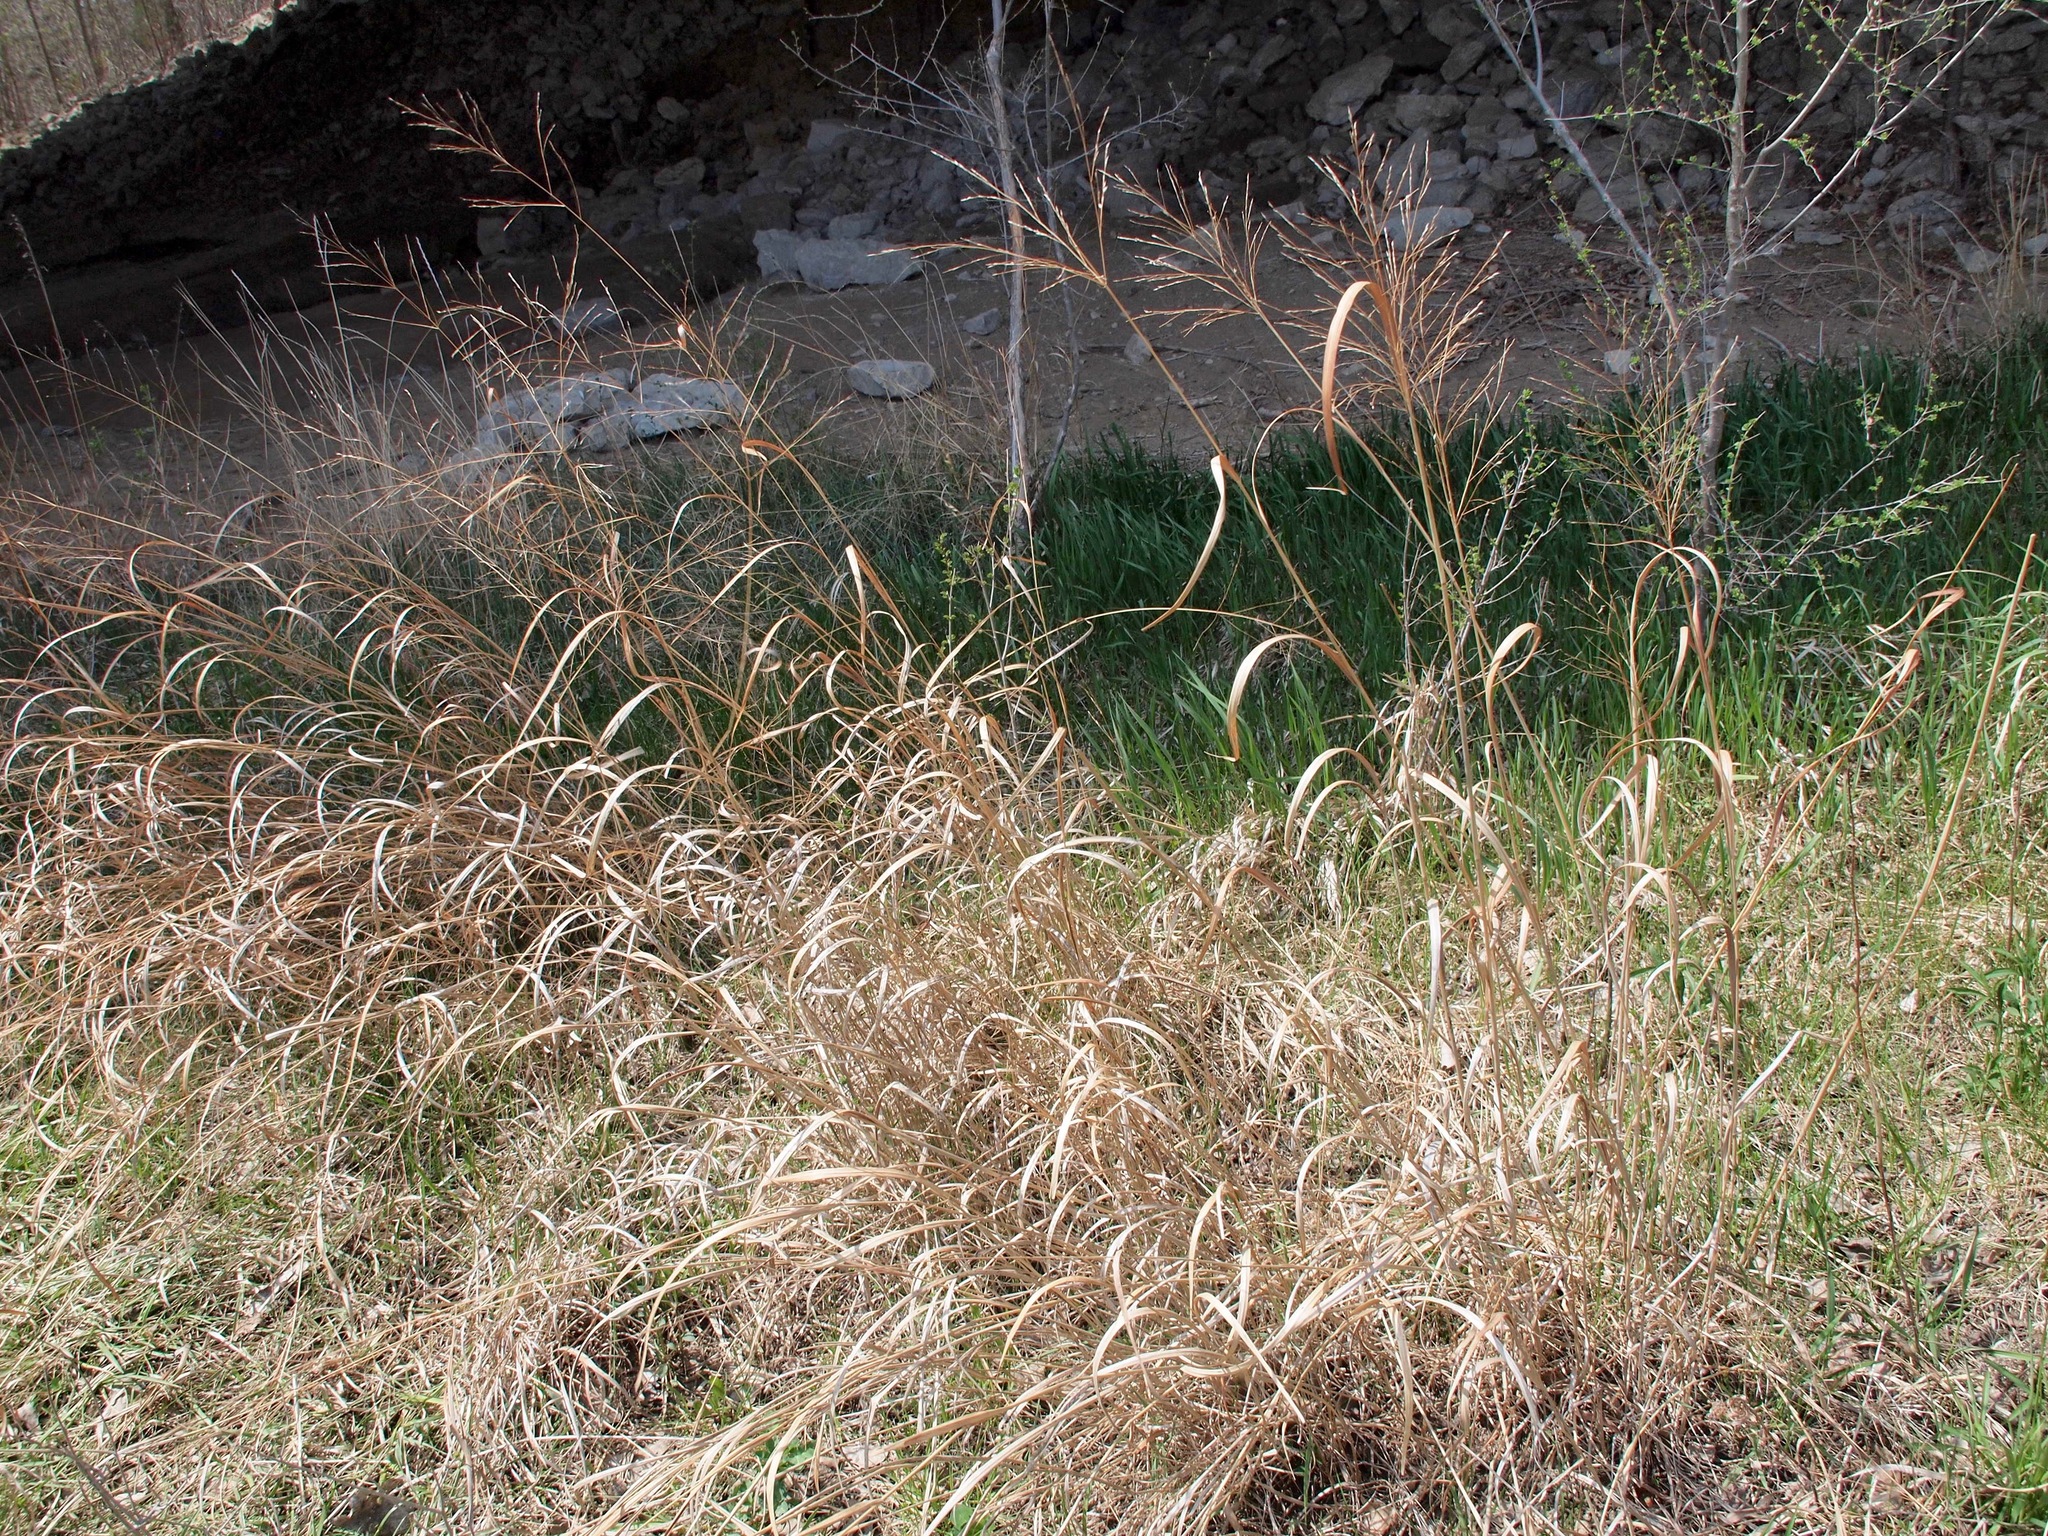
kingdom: Plantae
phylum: Tracheophyta
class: Liliopsida
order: Poales
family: Poaceae
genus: Panicum
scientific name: Panicum virgatum
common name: Switchgrass
